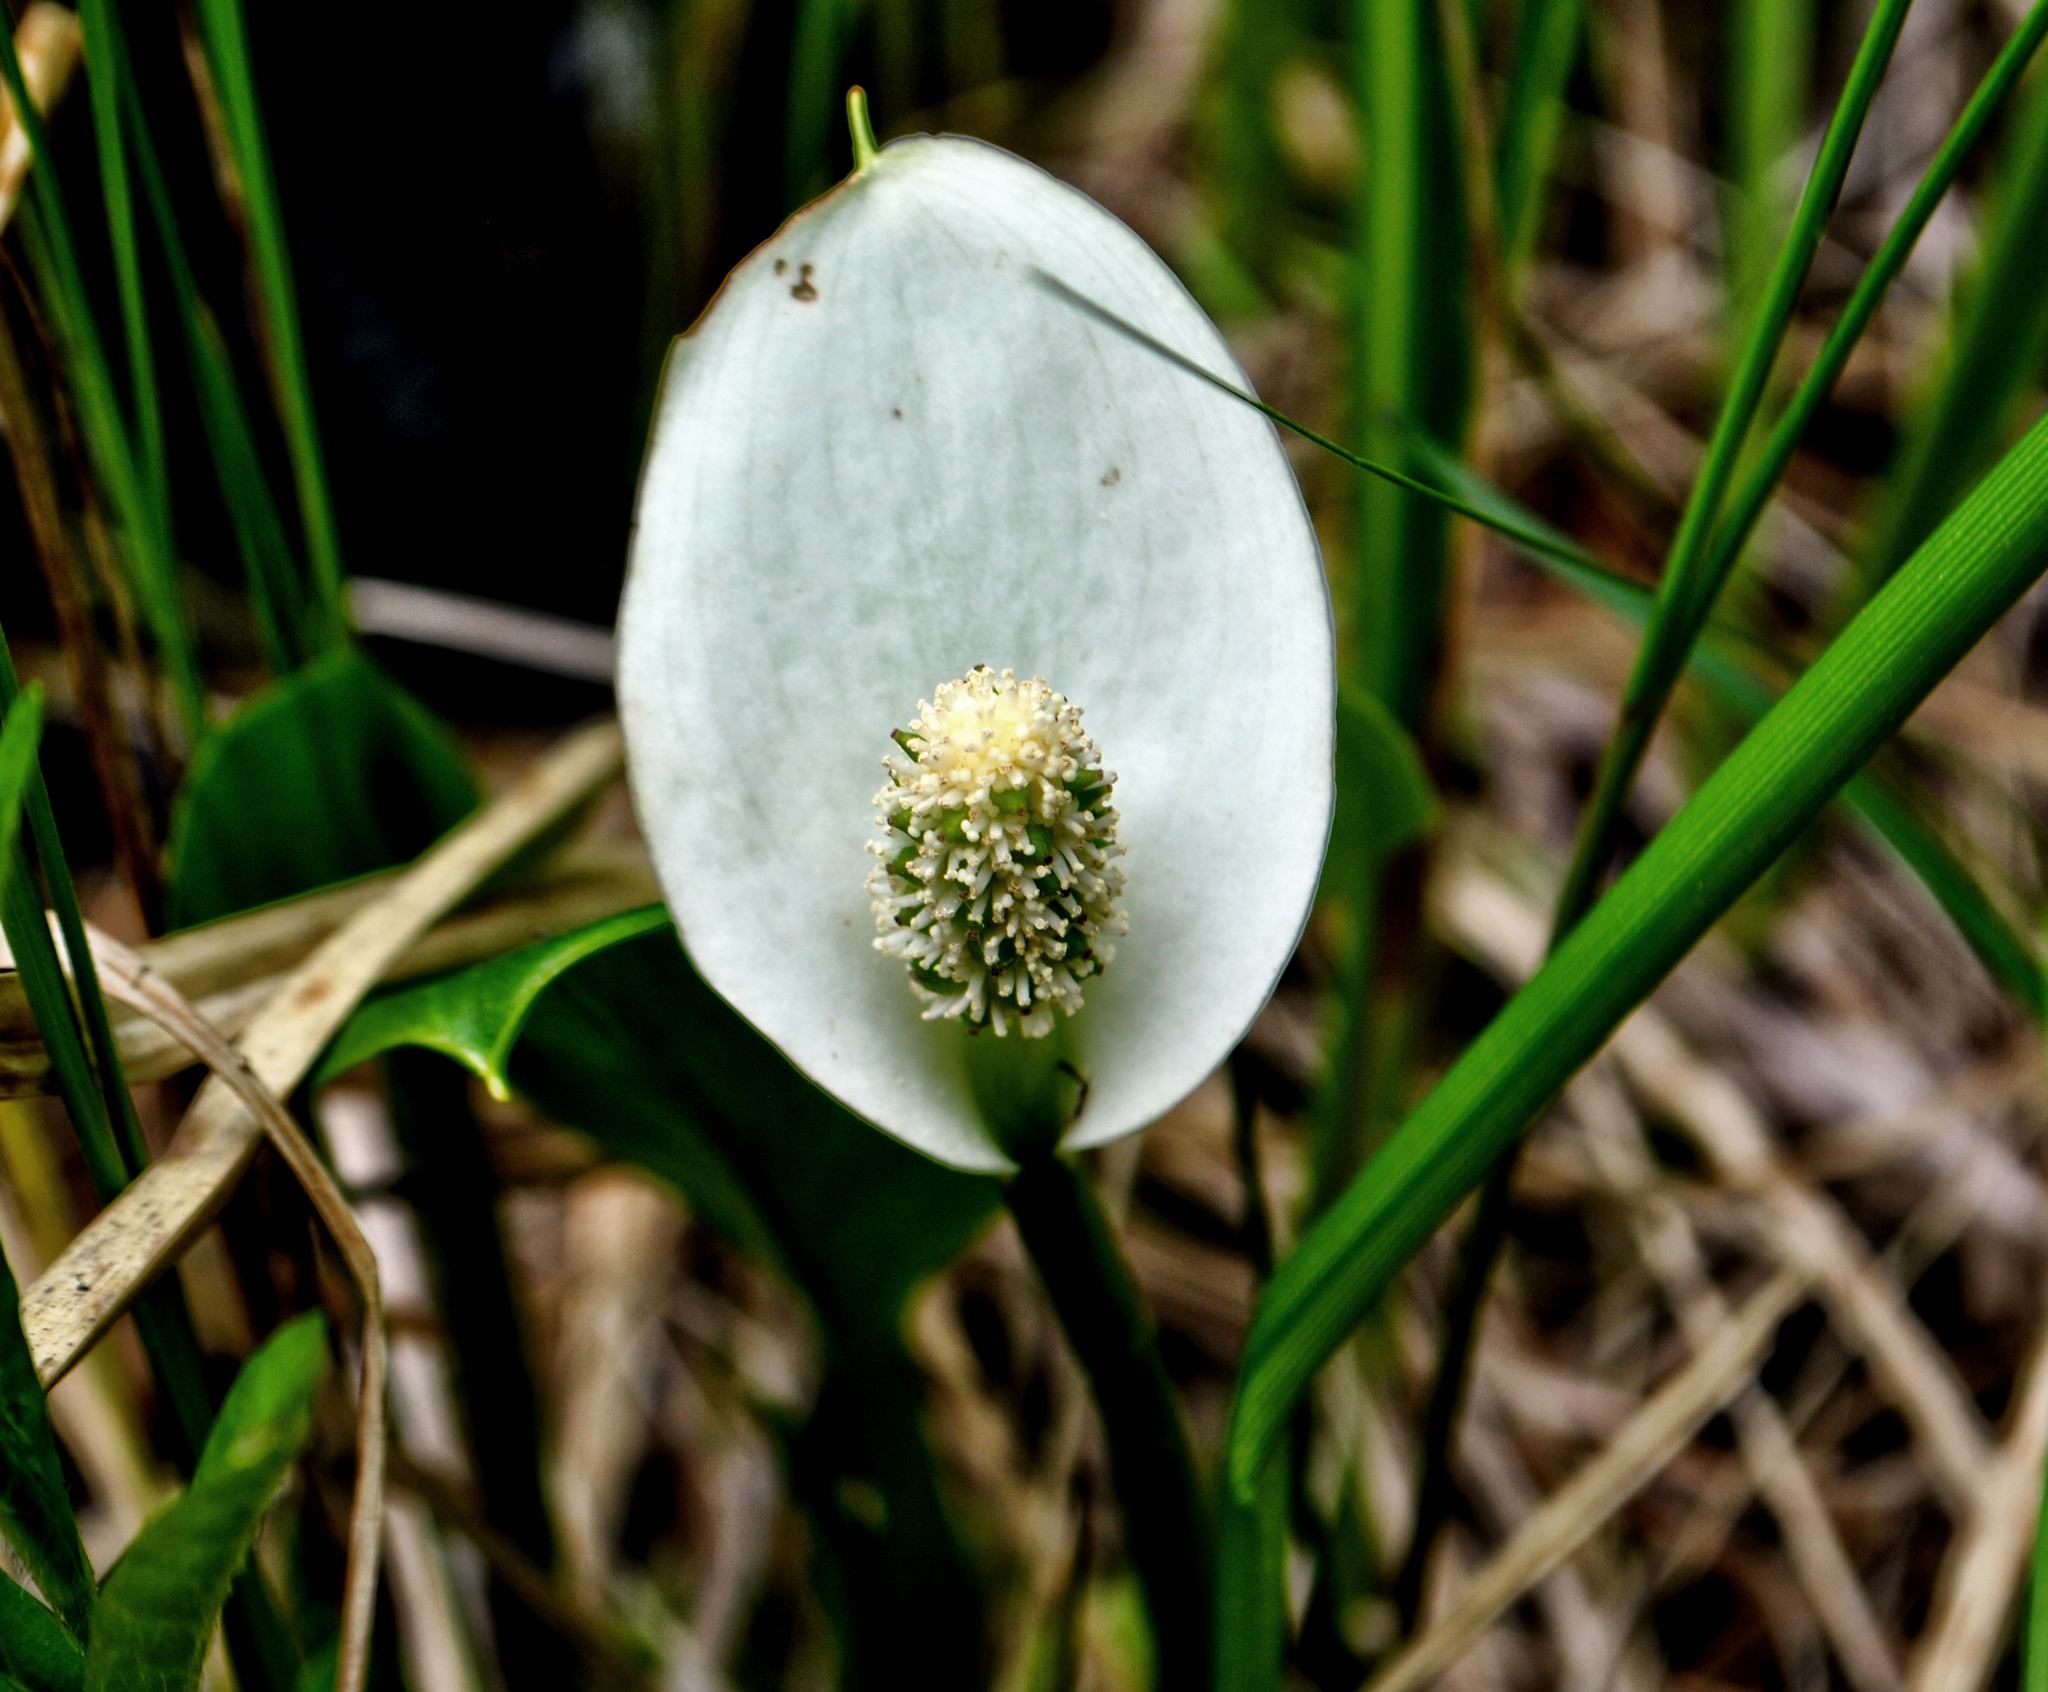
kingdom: Plantae
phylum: Tracheophyta
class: Liliopsida
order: Alismatales
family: Araceae
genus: Calla
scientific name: Calla palustris
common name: Bog arum
